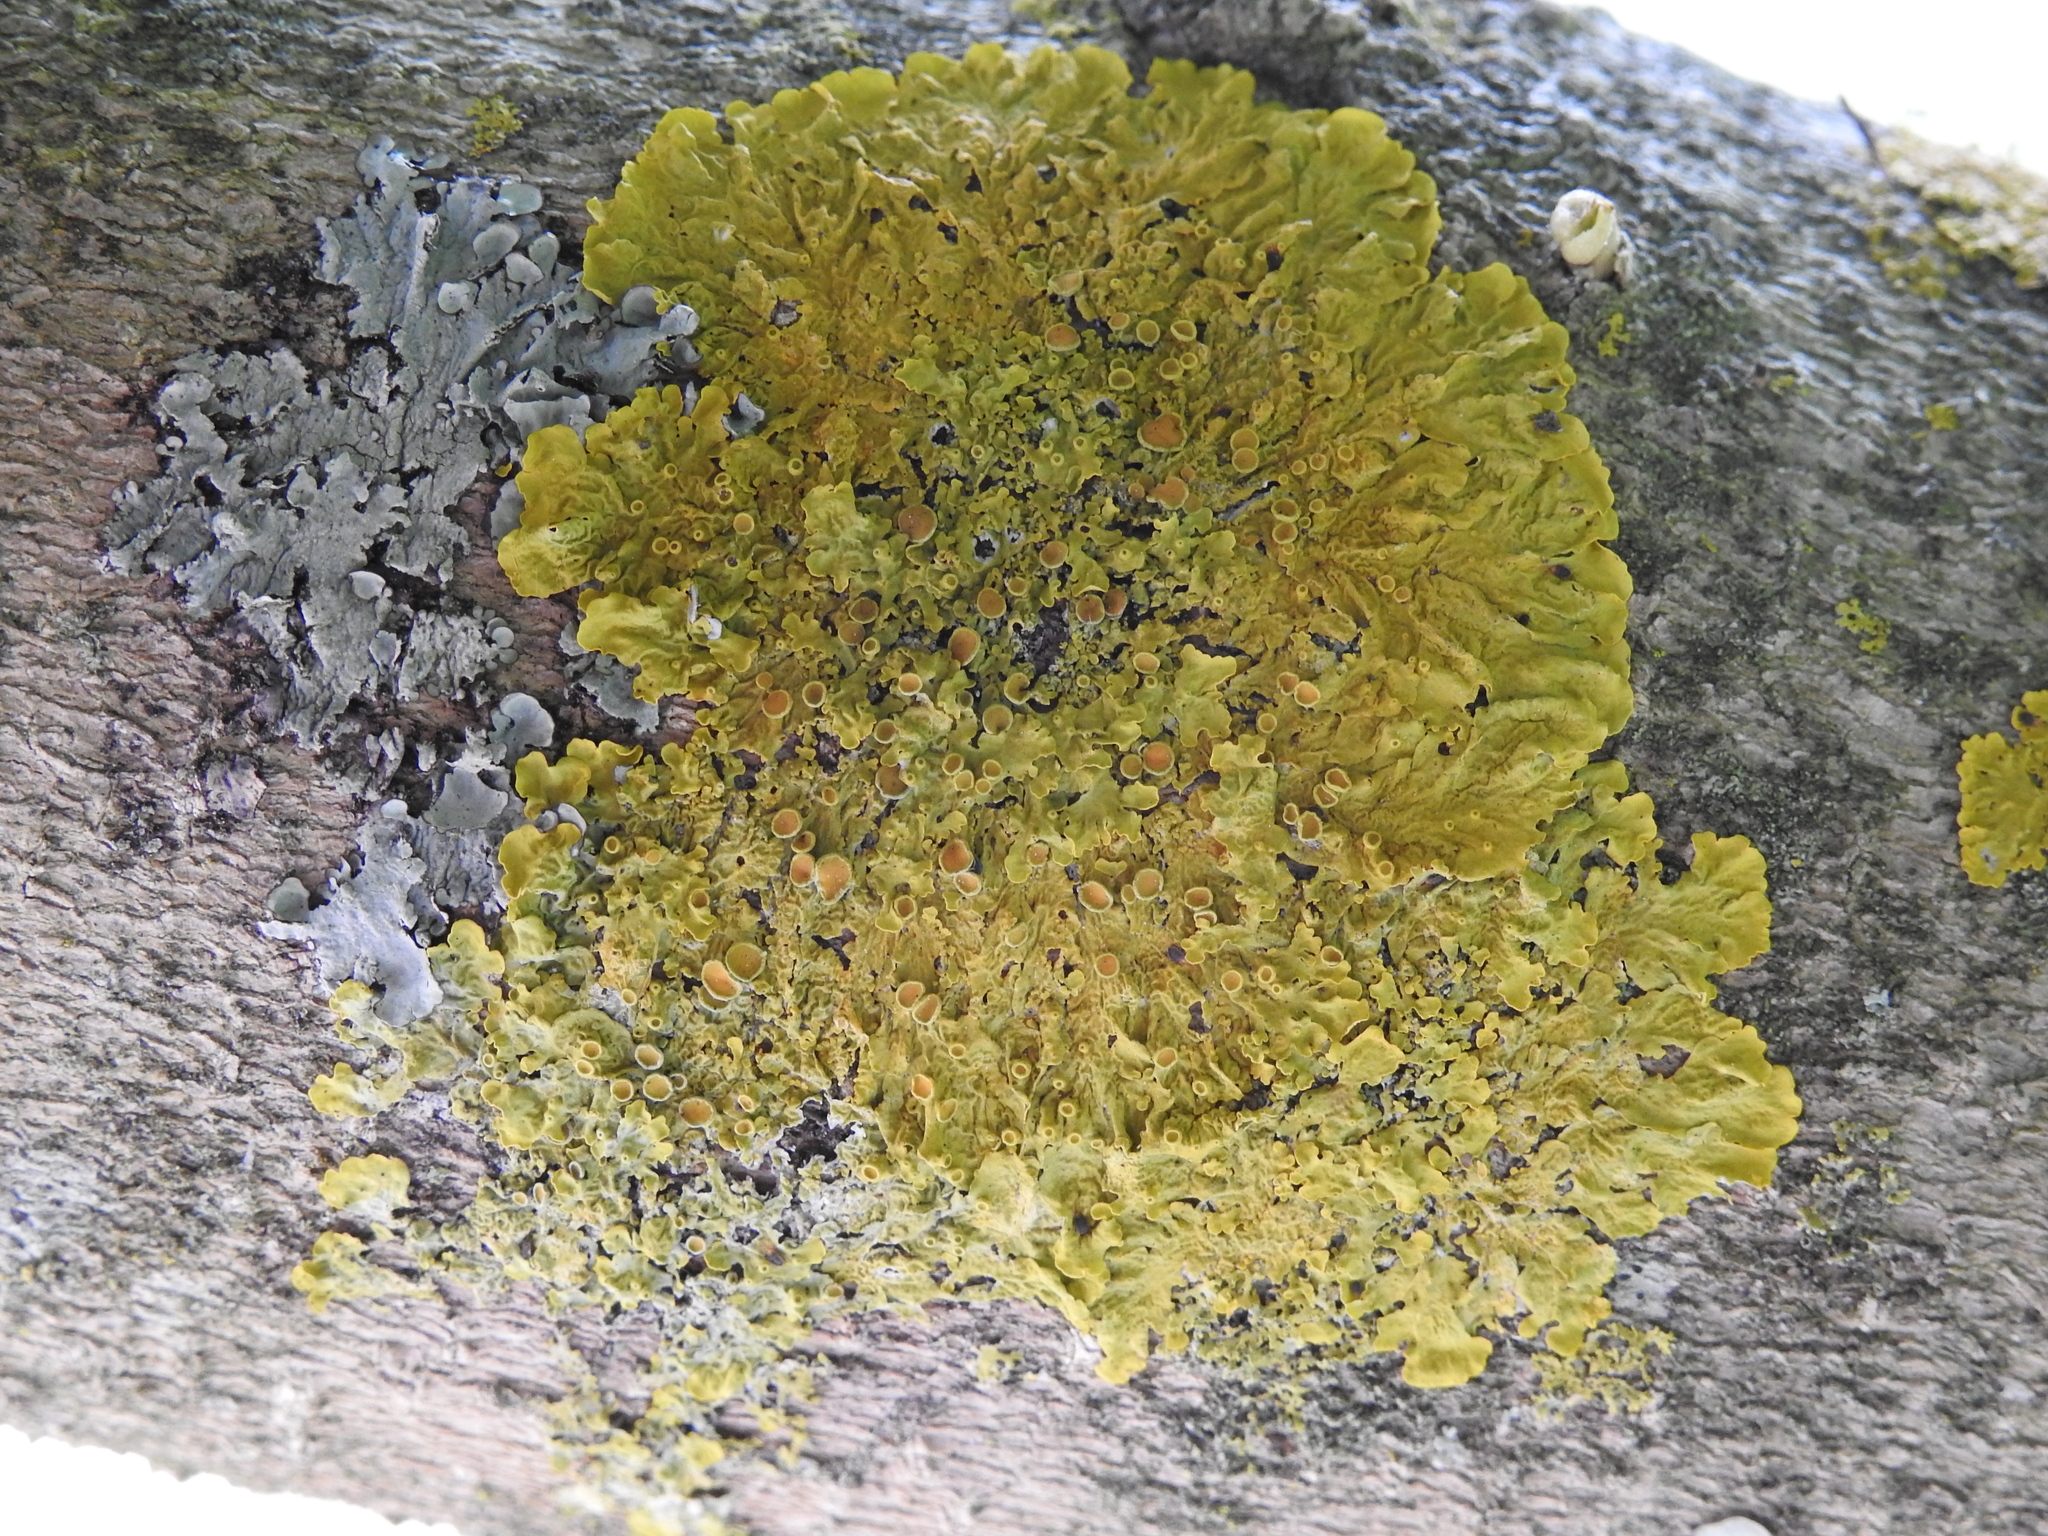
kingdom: Fungi
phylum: Ascomycota
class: Lecanoromycetes
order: Teloschistales
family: Teloschistaceae
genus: Xanthoria
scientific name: Xanthoria parietina
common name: Common orange lichen
